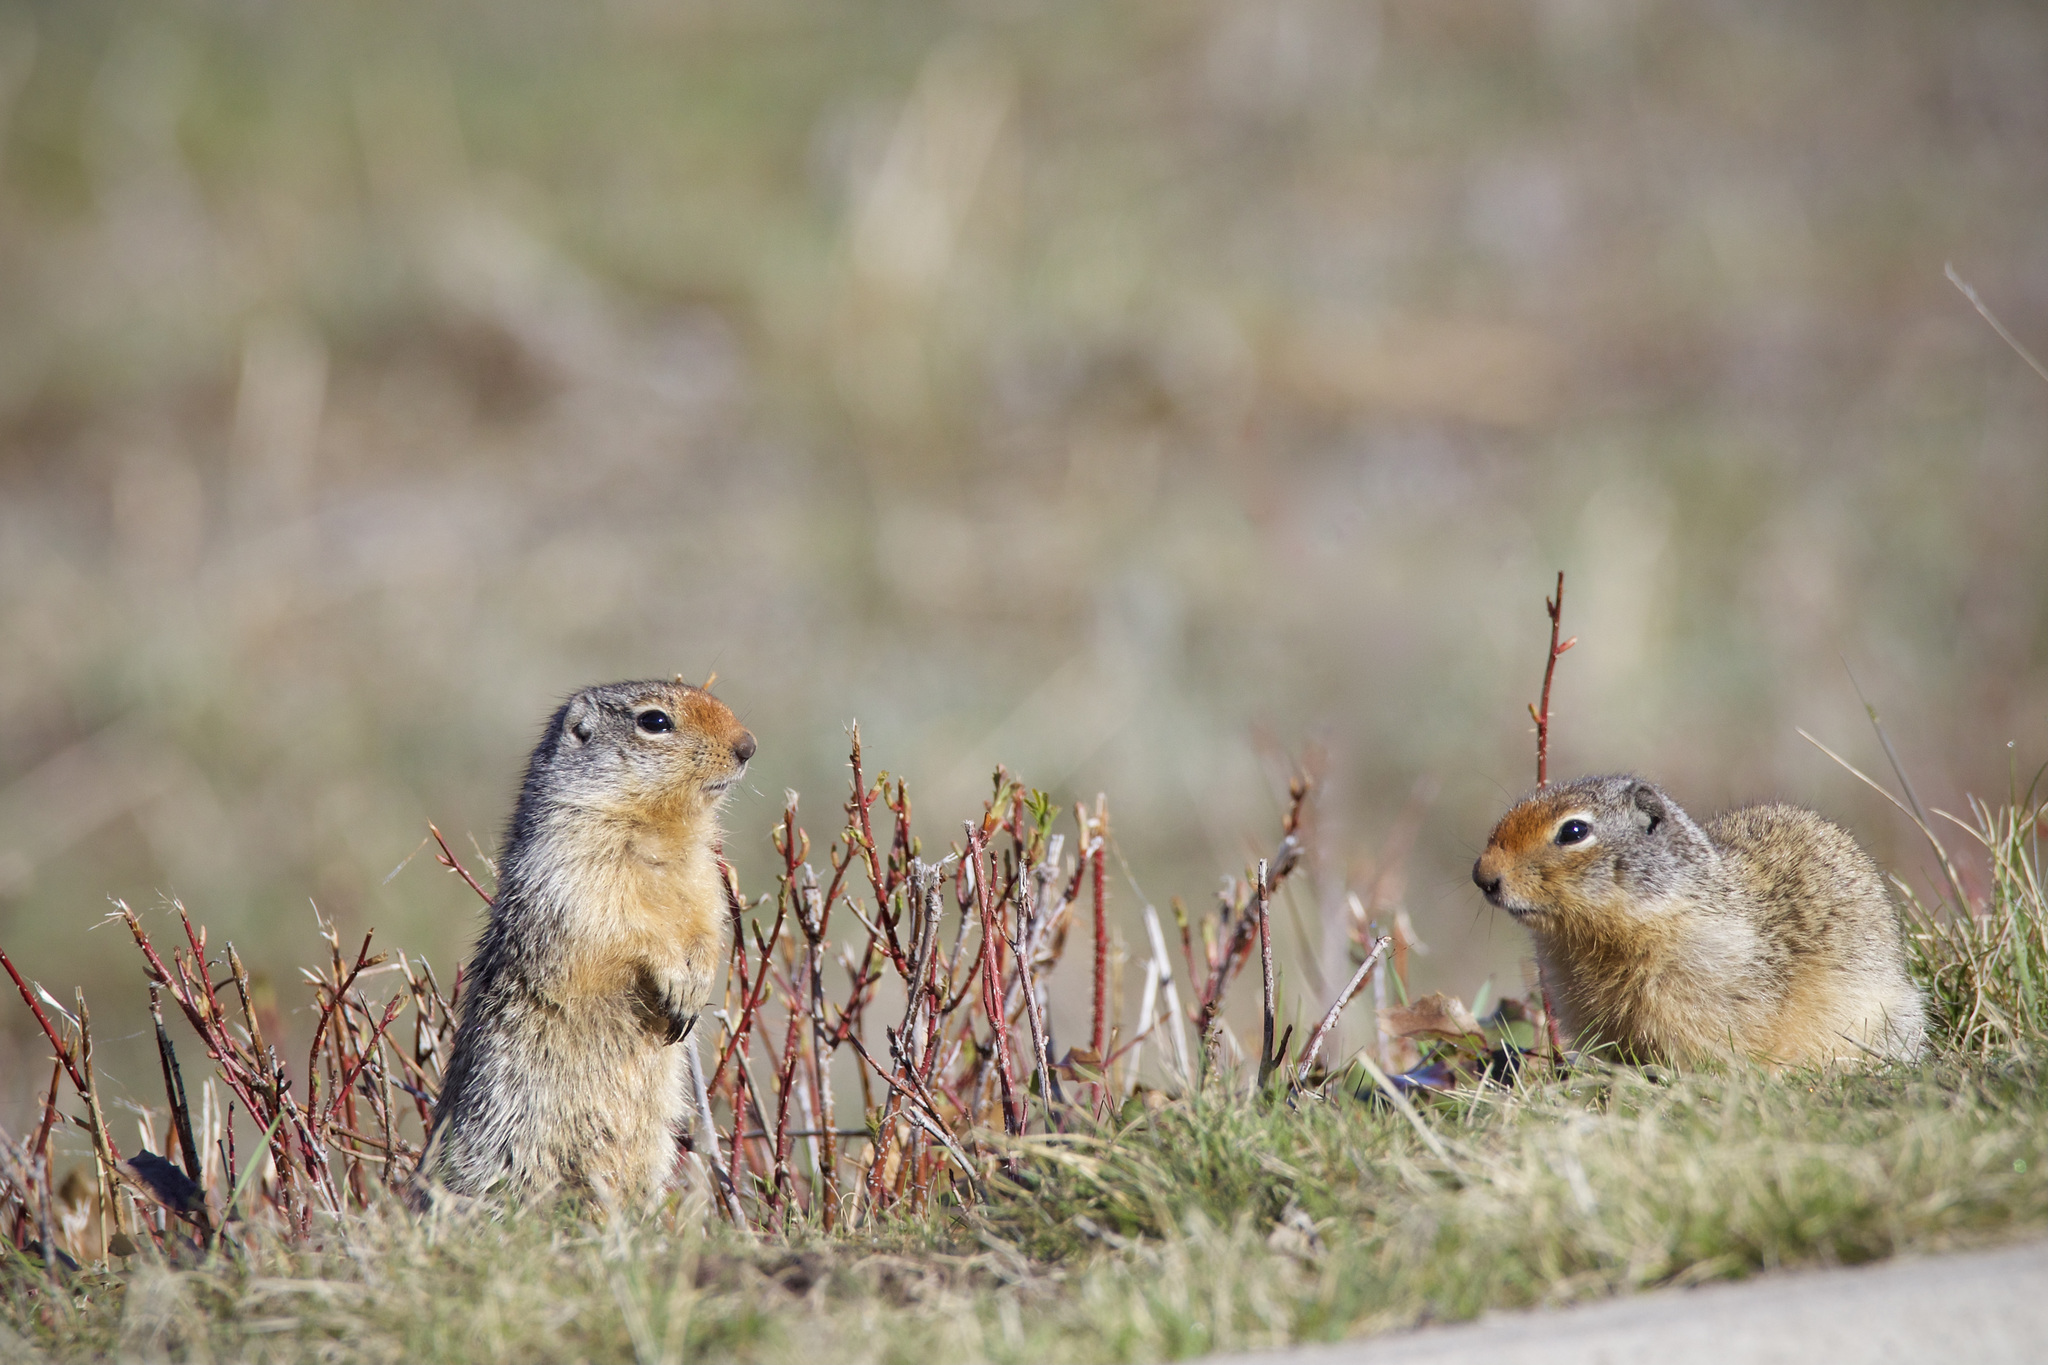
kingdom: Animalia
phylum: Chordata
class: Mammalia
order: Rodentia
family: Sciuridae
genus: Urocitellus
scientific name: Urocitellus columbianus
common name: Columbian ground squirrel
